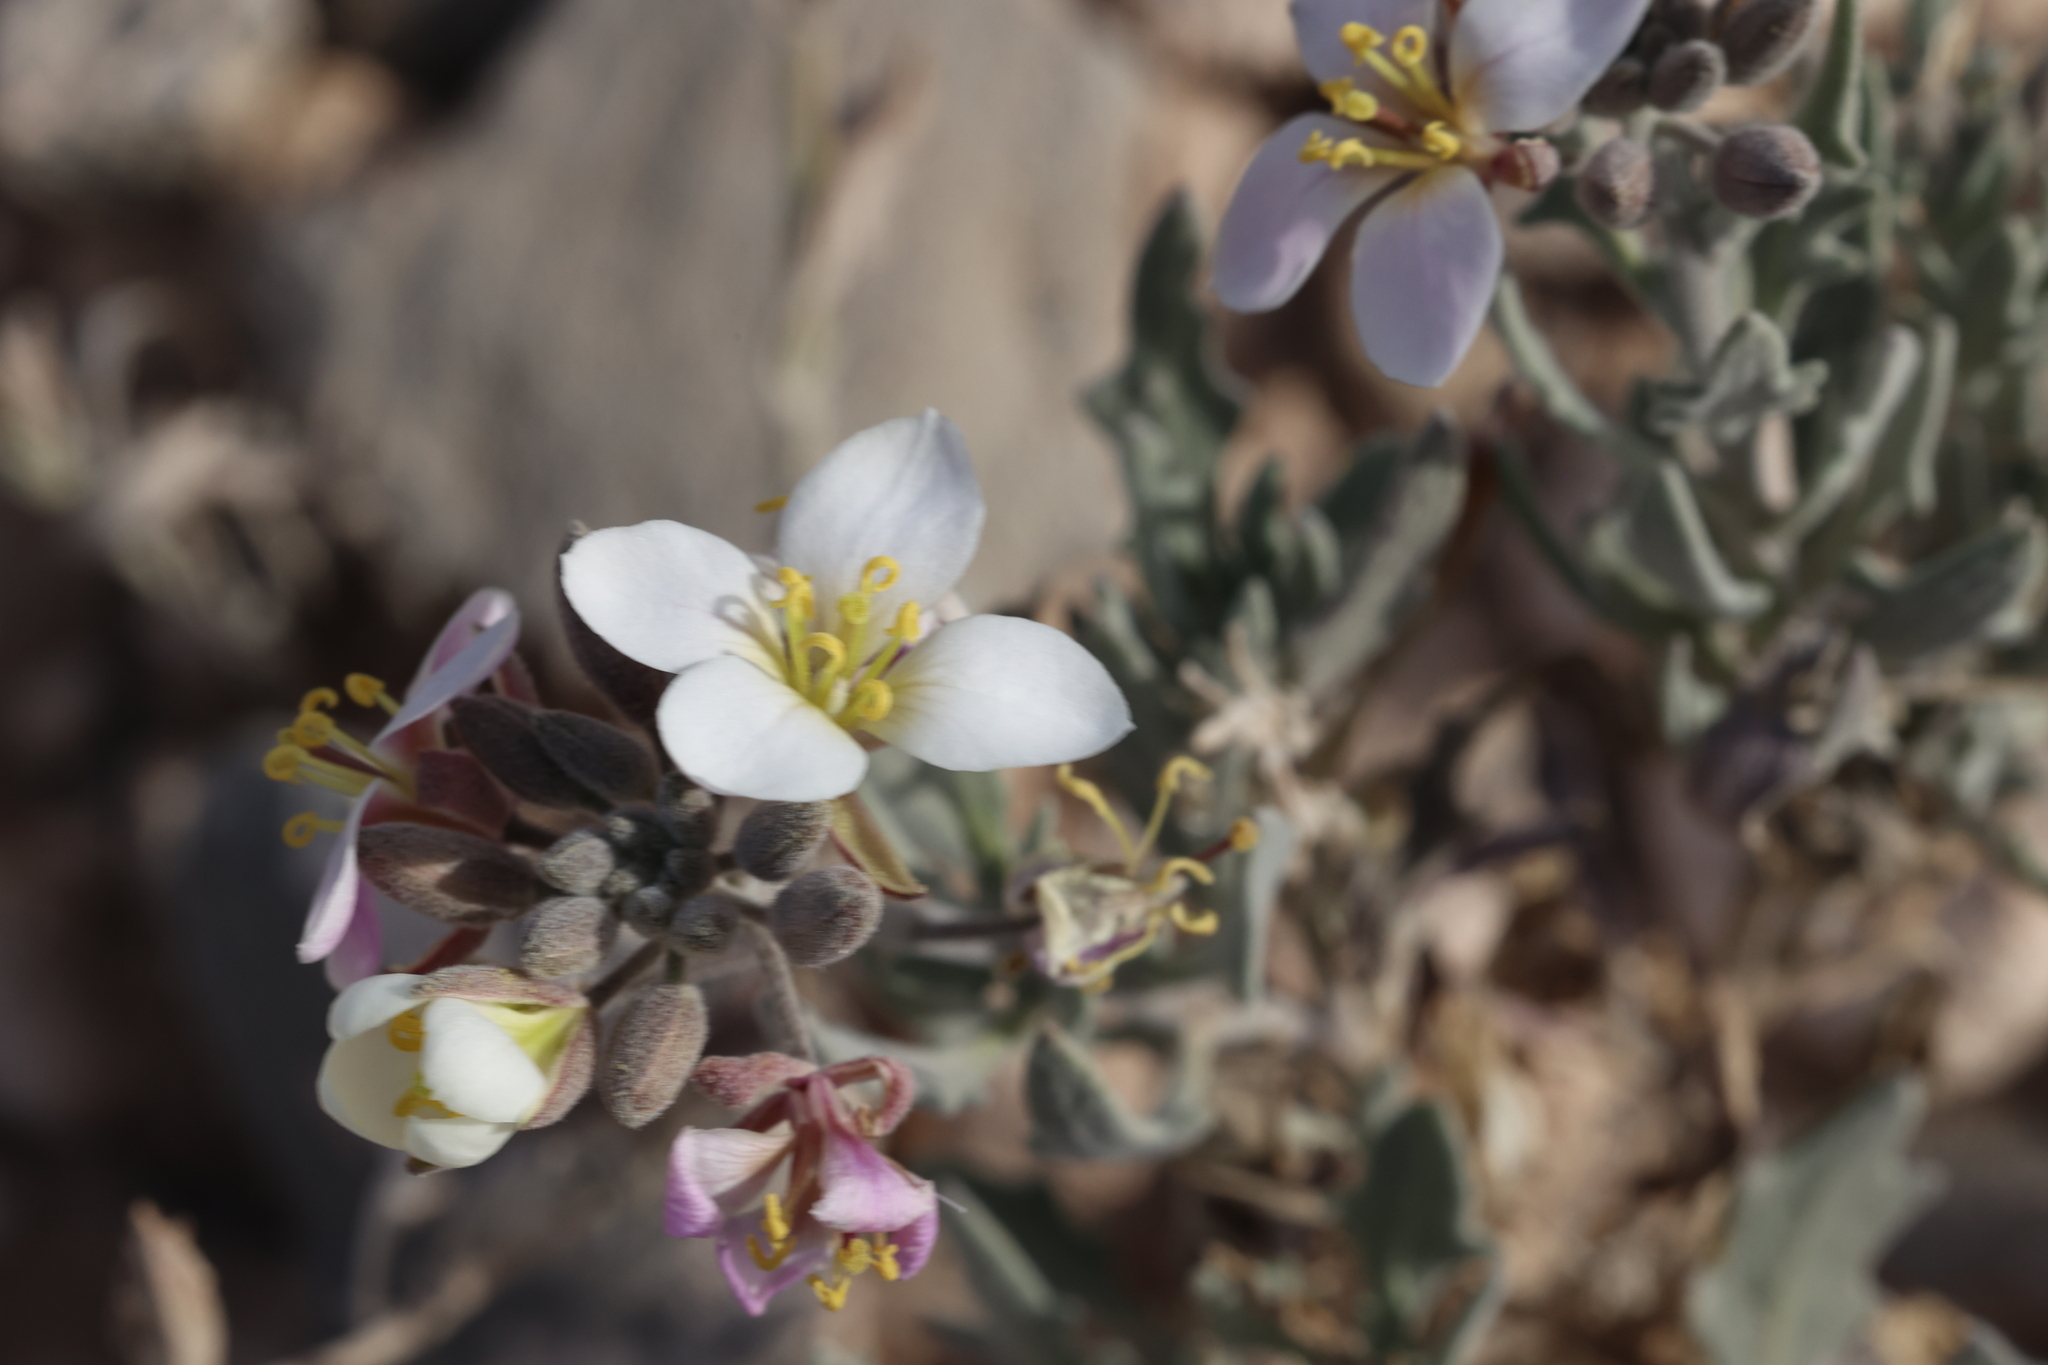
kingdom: Plantae
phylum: Tracheophyta
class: Magnoliopsida
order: Brassicales
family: Brassicaceae
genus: Nerisyrenia
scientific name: Nerisyrenia camporum
